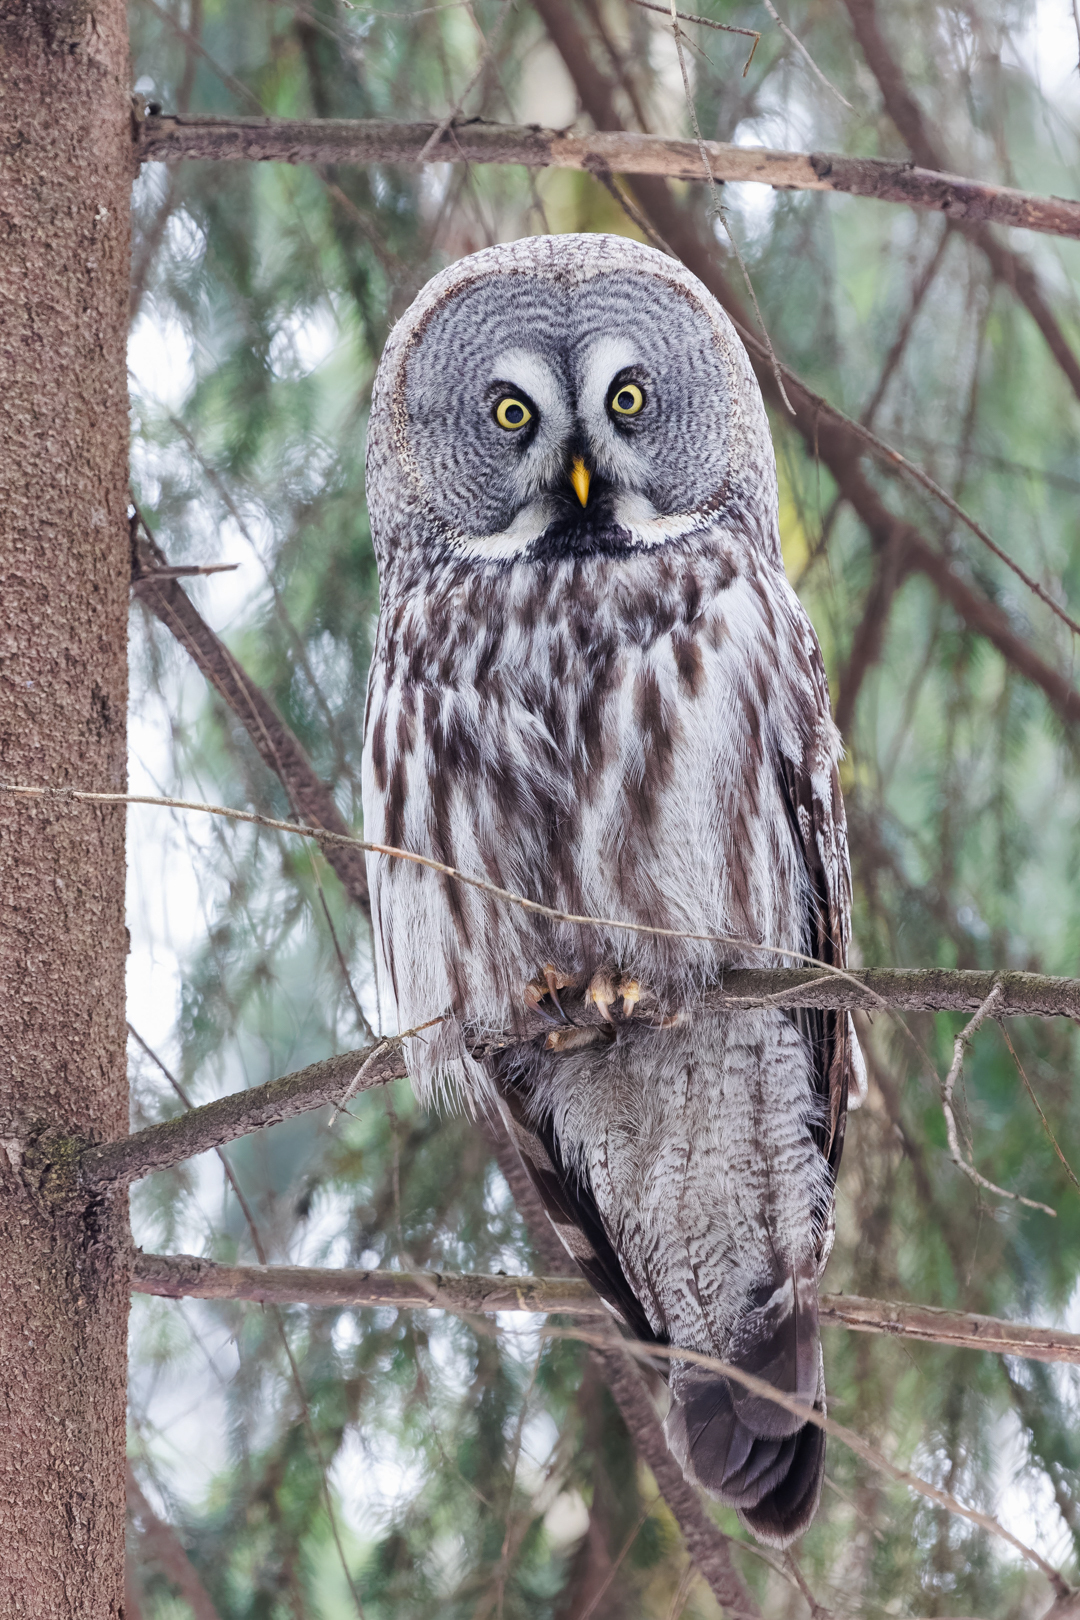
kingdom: Animalia
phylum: Chordata
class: Aves
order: Strigiformes
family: Strigidae
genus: Strix
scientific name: Strix nebulosa
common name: Great grey owl
